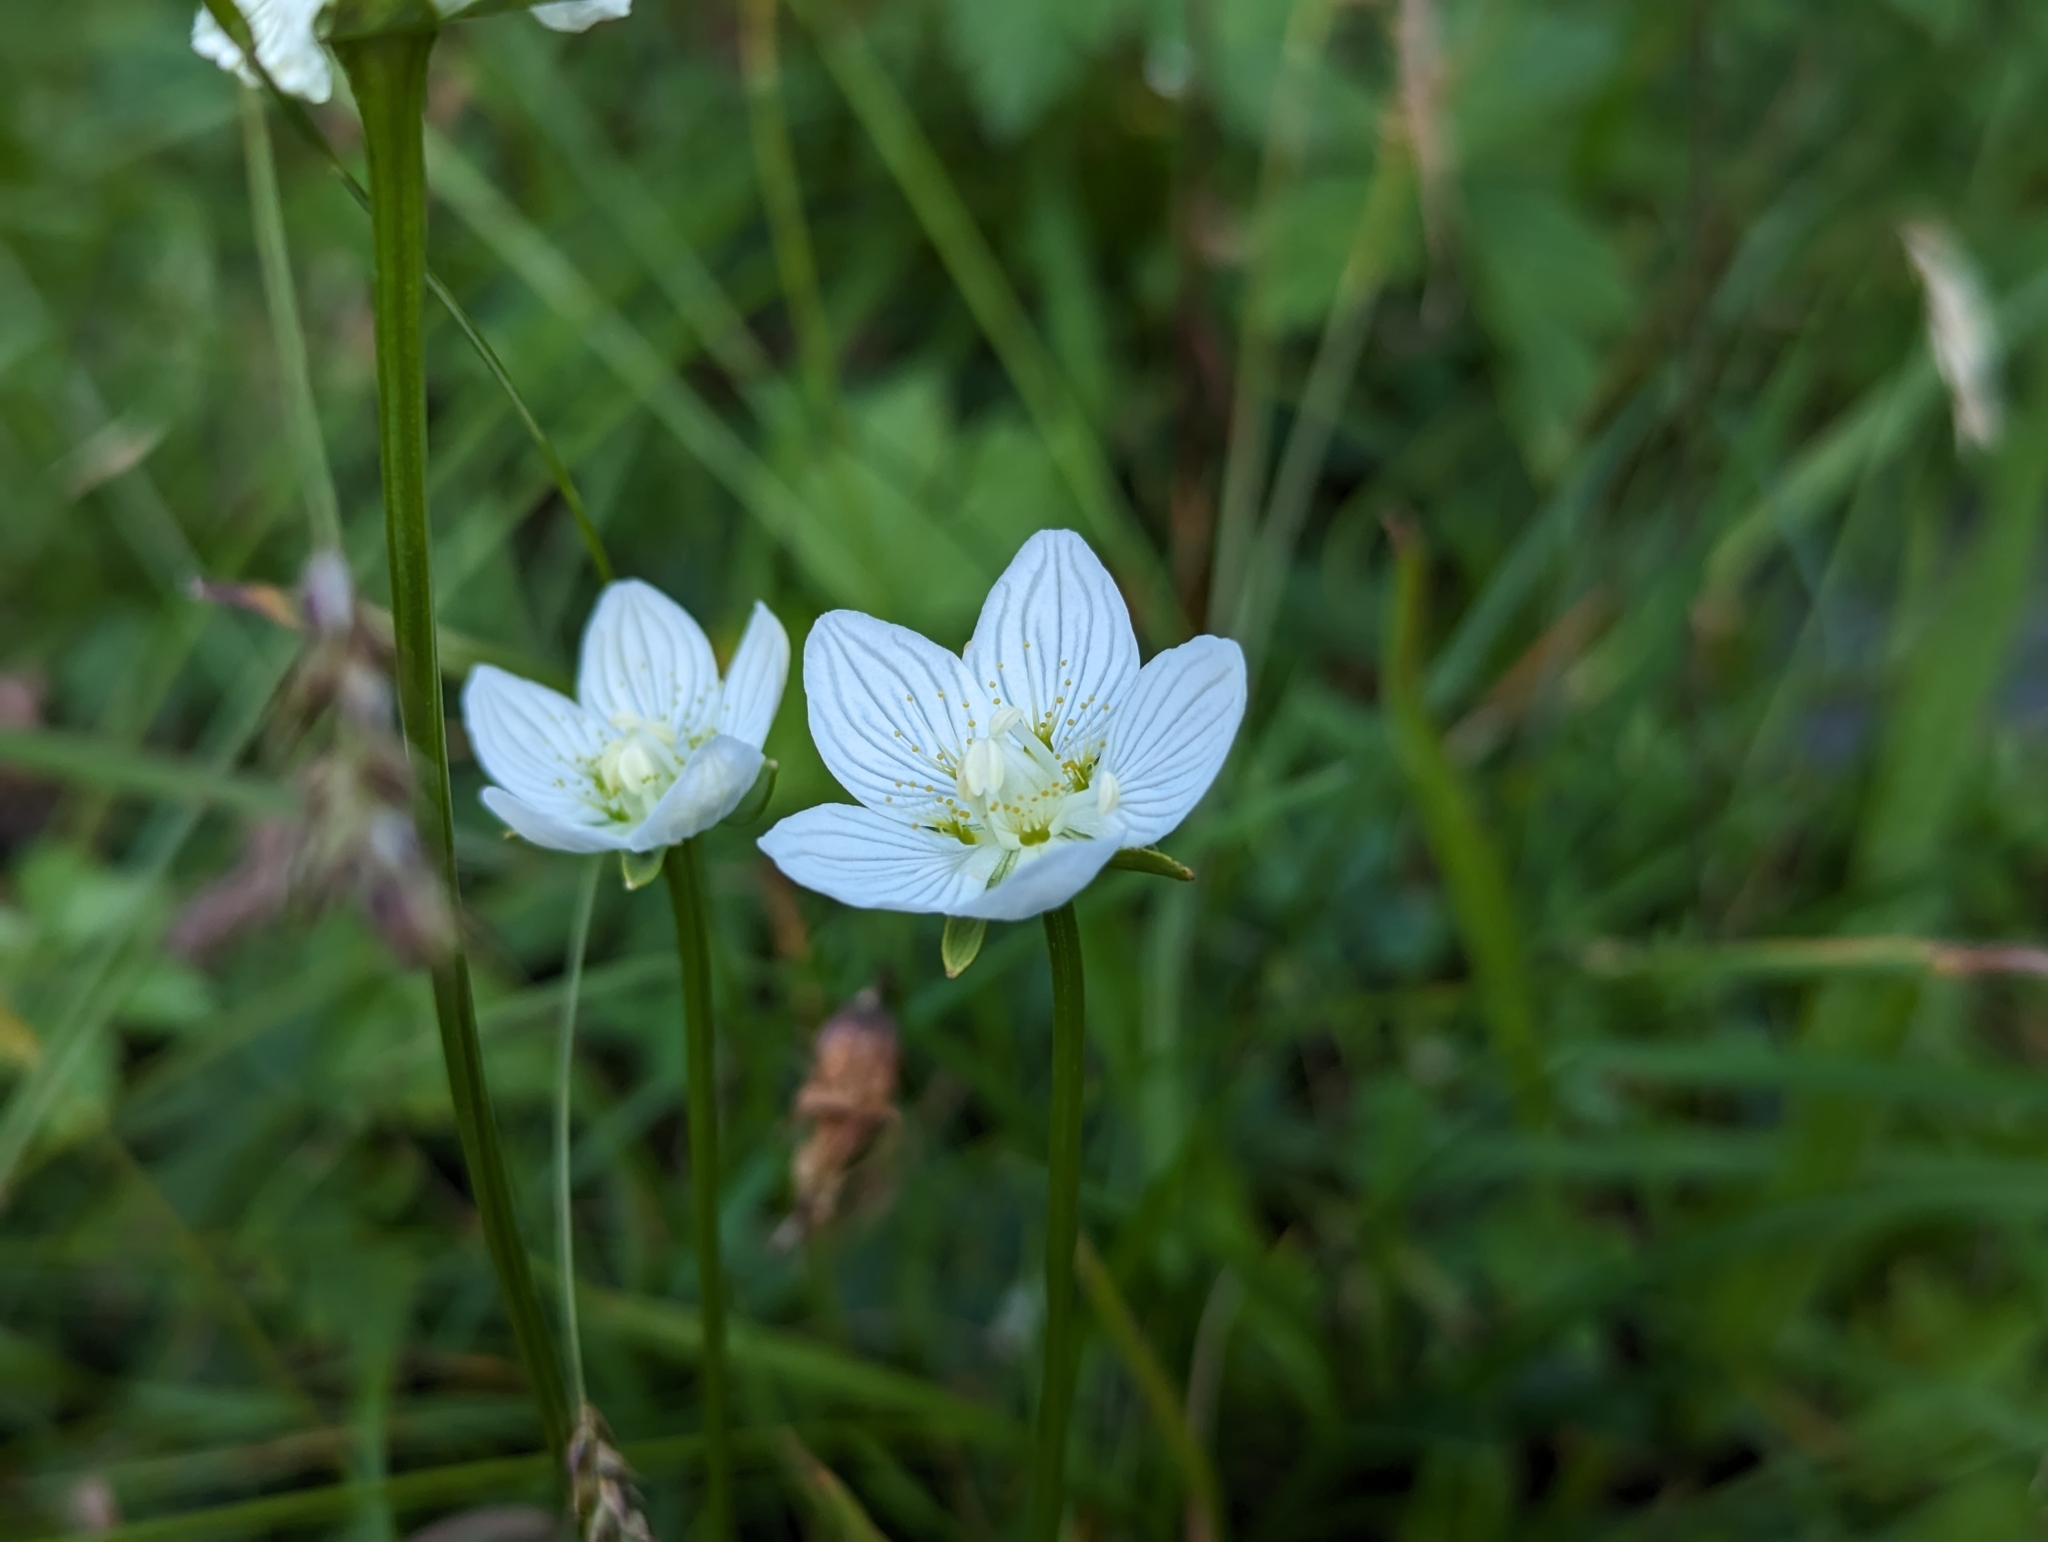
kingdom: Plantae
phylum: Tracheophyta
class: Magnoliopsida
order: Celastrales
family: Parnassiaceae
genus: Parnassia
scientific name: Parnassia palustris
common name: Grass-of-parnassus
